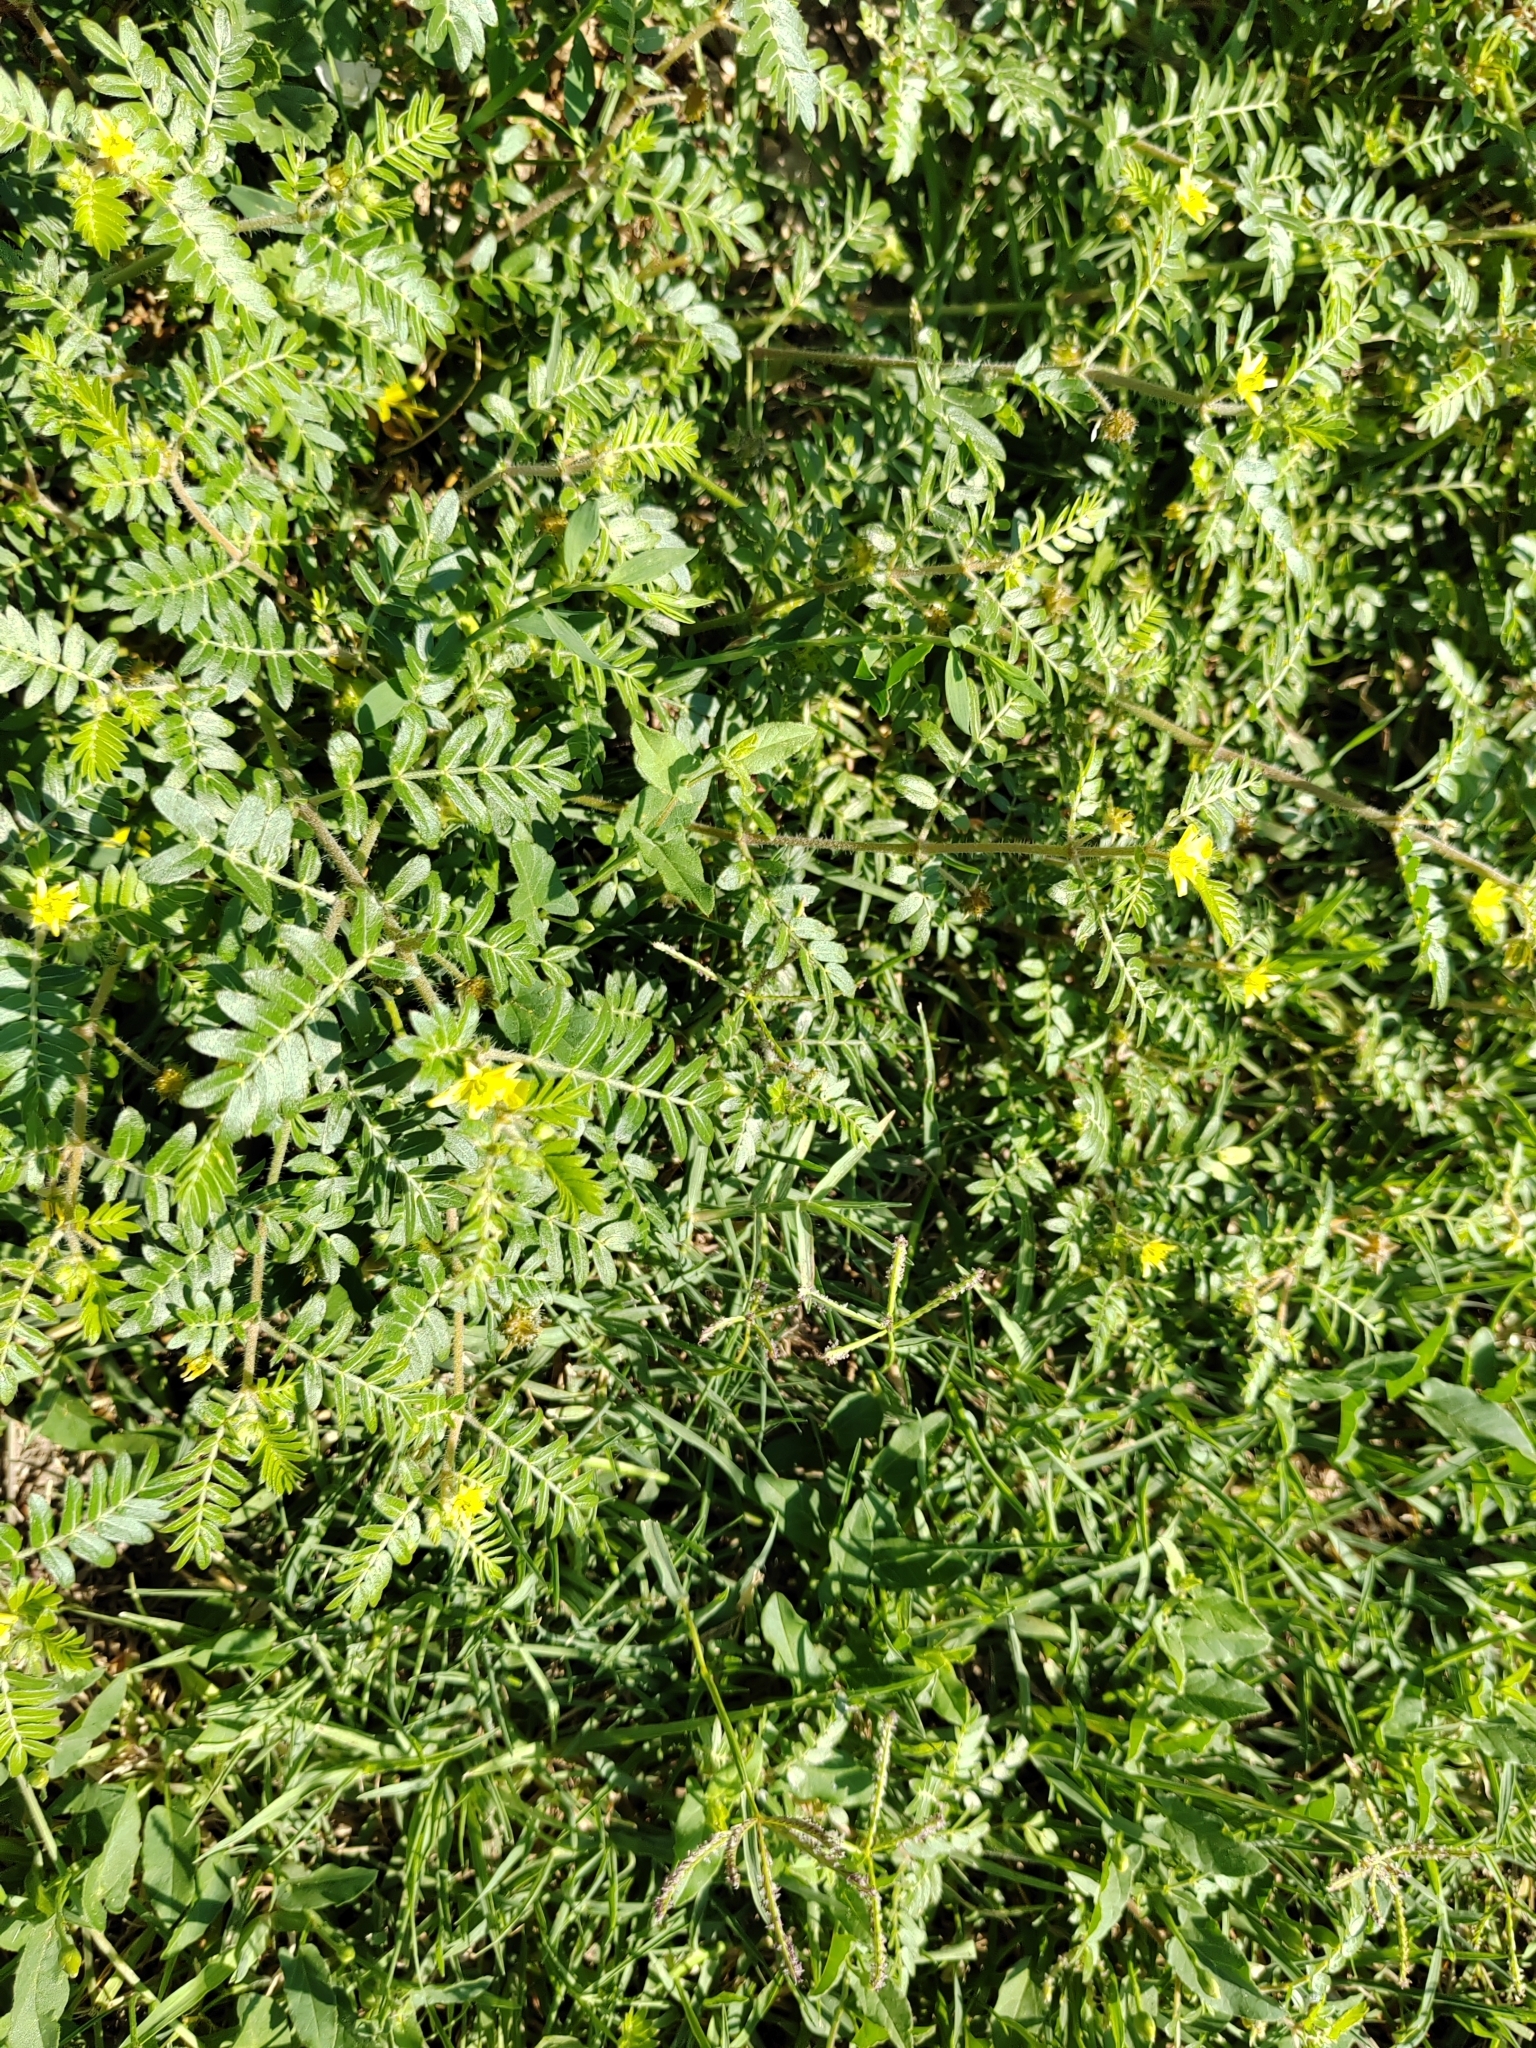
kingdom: Plantae
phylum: Tracheophyta
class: Magnoliopsida
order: Zygophyllales
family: Zygophyllaceae
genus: Tribulus
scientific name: Tribulus terrestris
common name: Puncturevine
